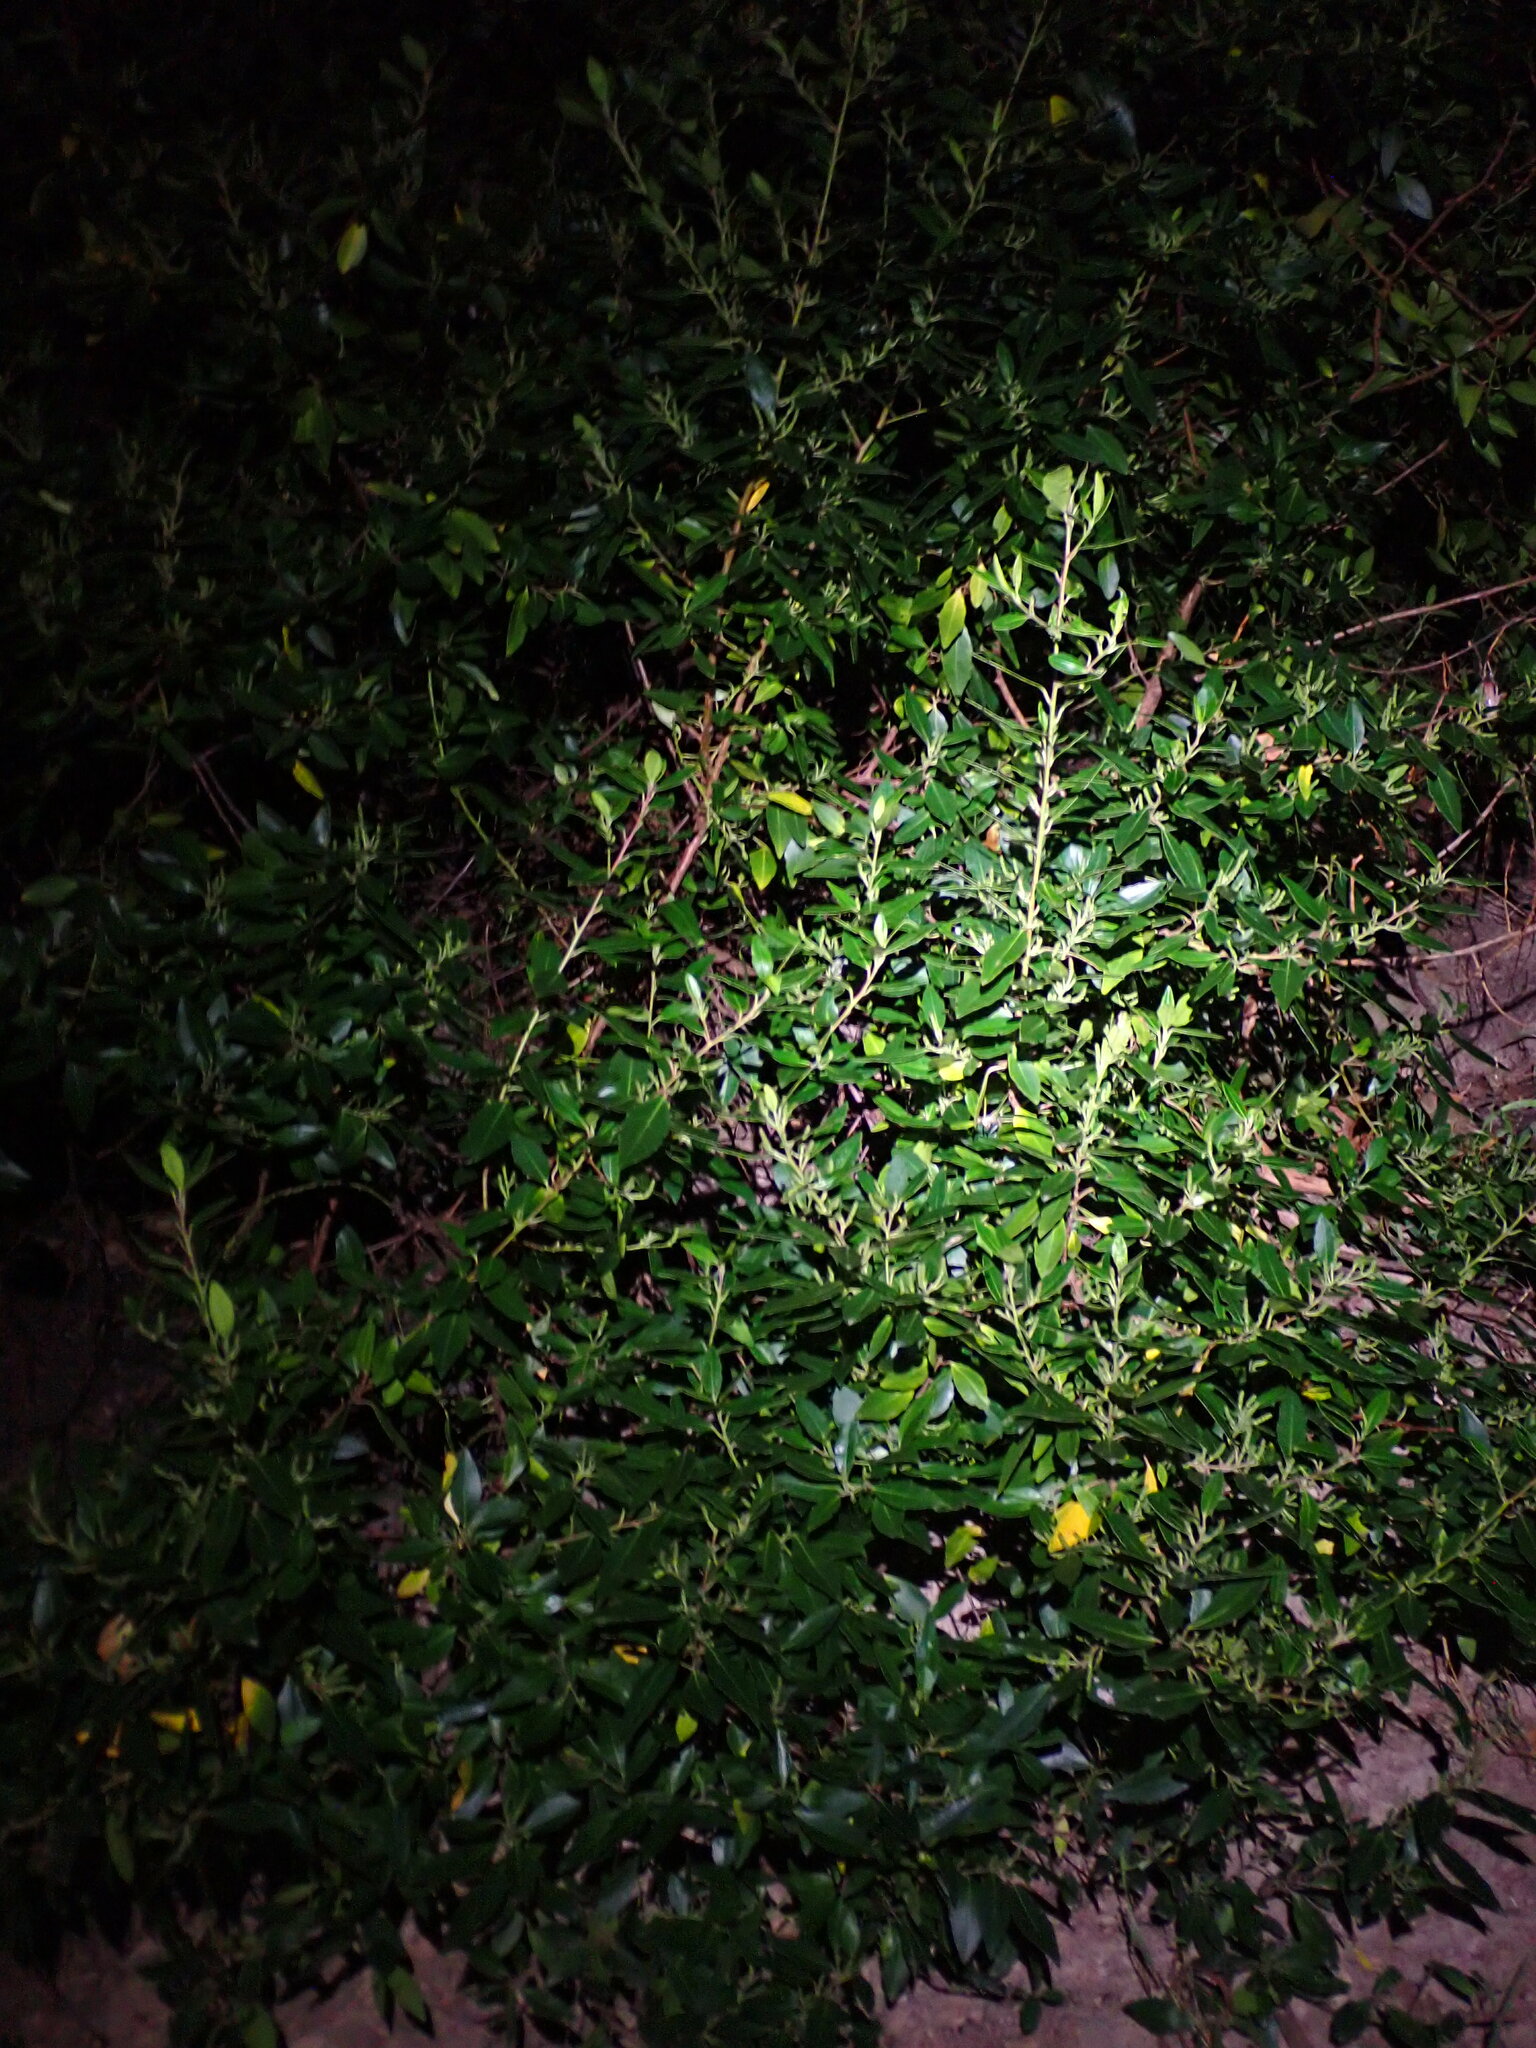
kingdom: Plantae
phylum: Tracheophyta
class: Magnoliopsida
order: Rosales
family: Rhamnaceae
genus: Rhamnus
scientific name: Rhamnus alaternus
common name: Mediterranean buckthorn
